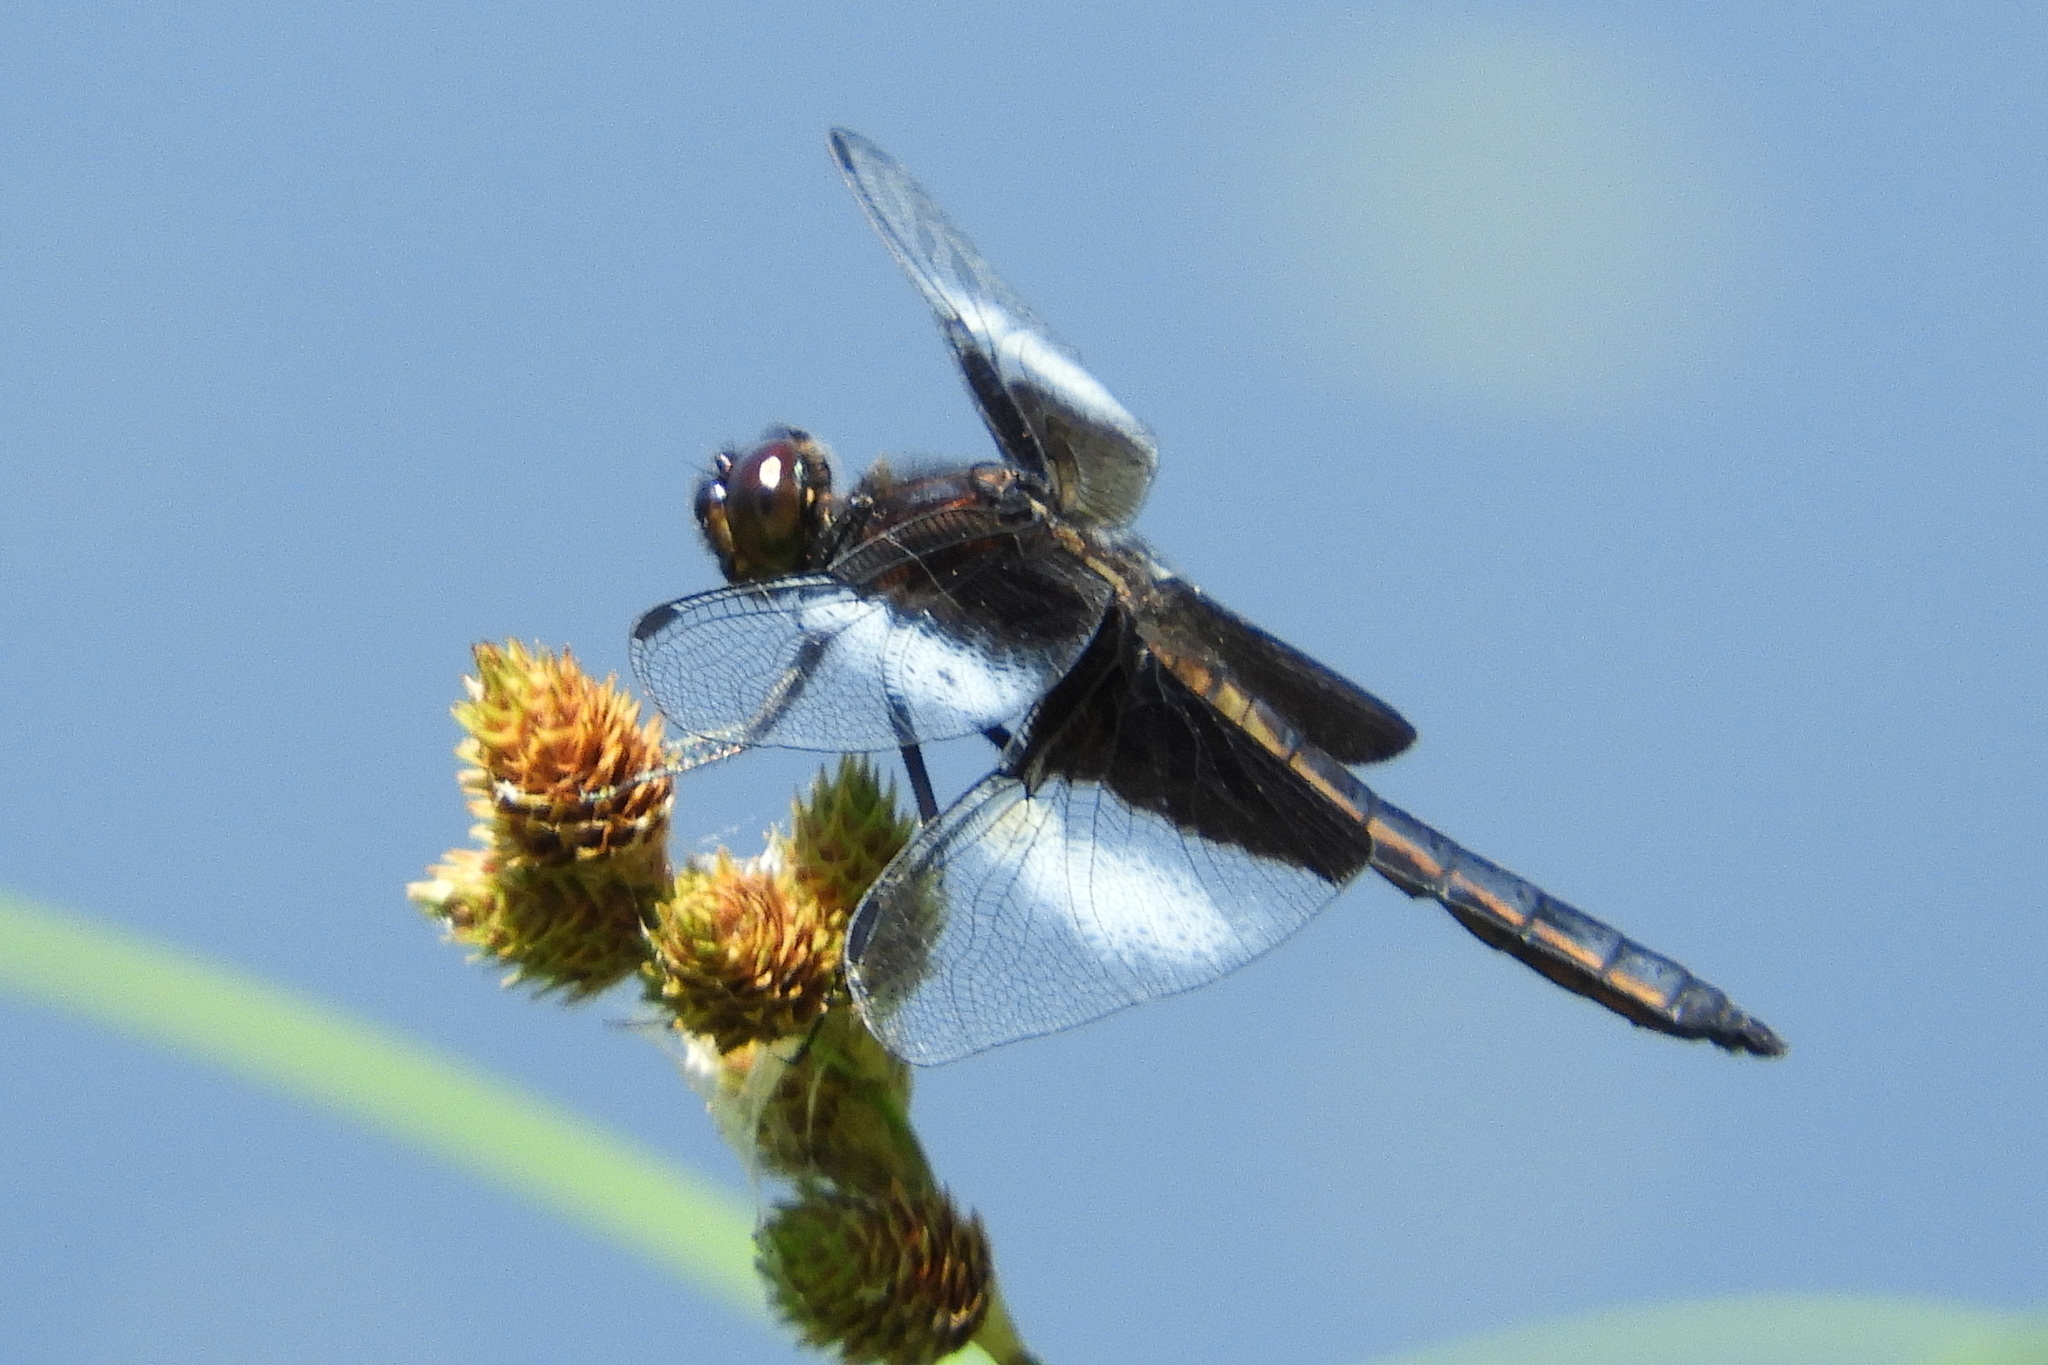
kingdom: Animalia
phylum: Arthropoda
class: Insecta
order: Odonata
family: Libellulidae
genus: Libellula
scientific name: Libellula luctuosa
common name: Widow skimmer
